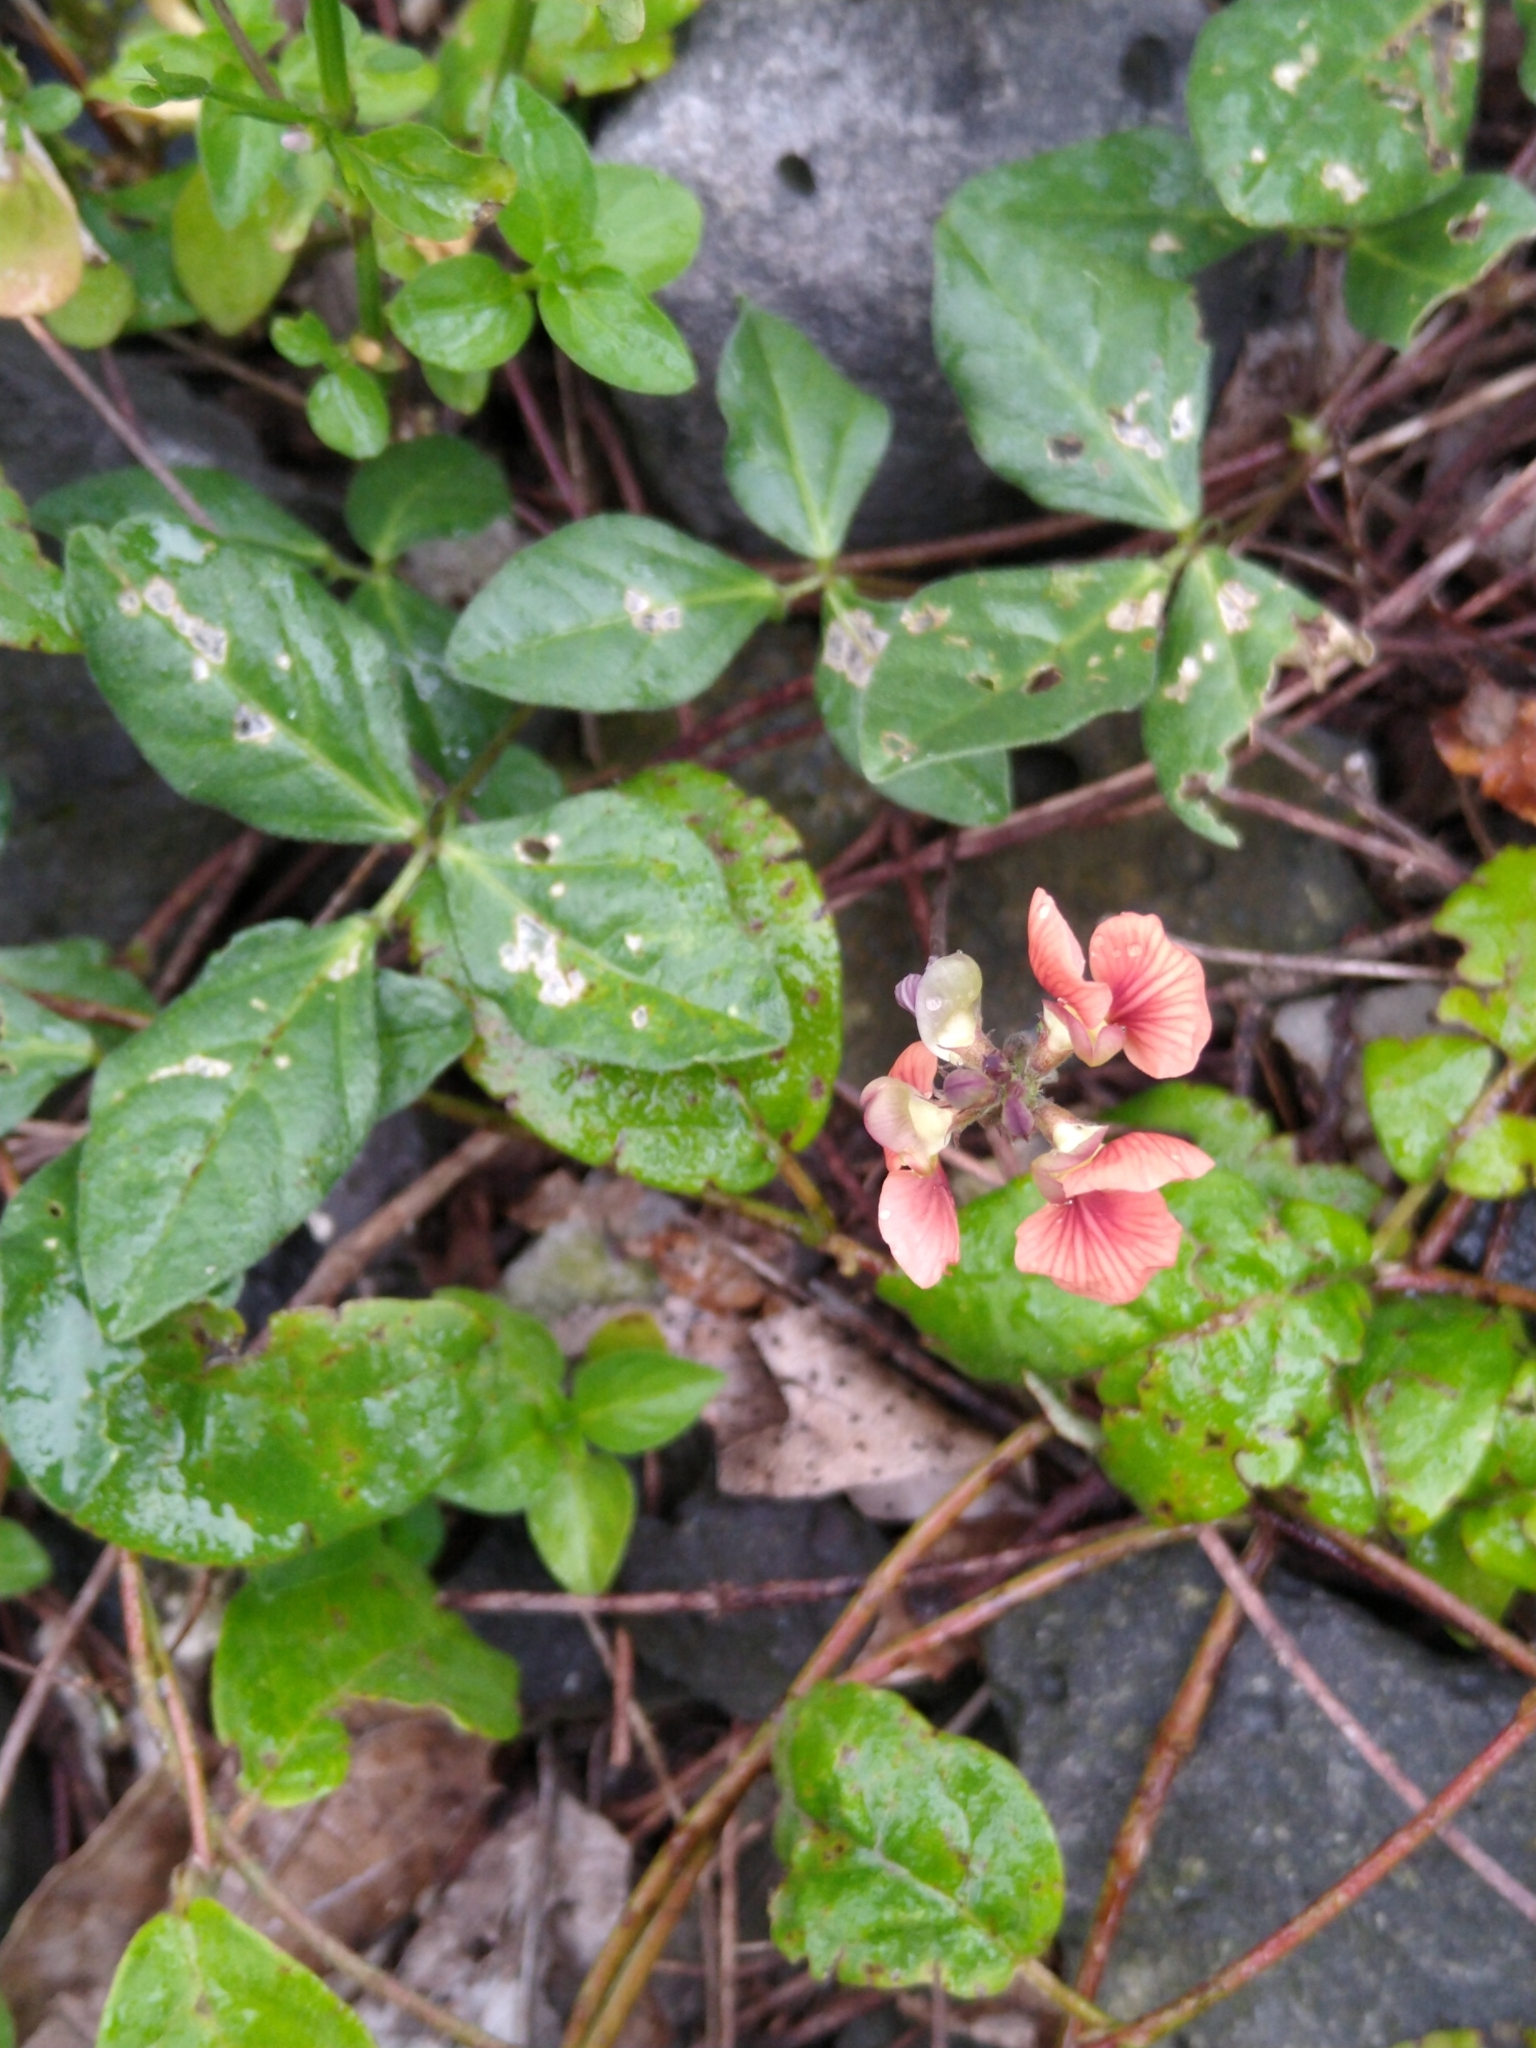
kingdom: Plantae
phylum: Tracheophyta
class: Magnoliopsida
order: Fabales
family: Fabaceae
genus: Macroptilium
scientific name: Macroptilium gibbosifolium
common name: Variableleaf bushbean
